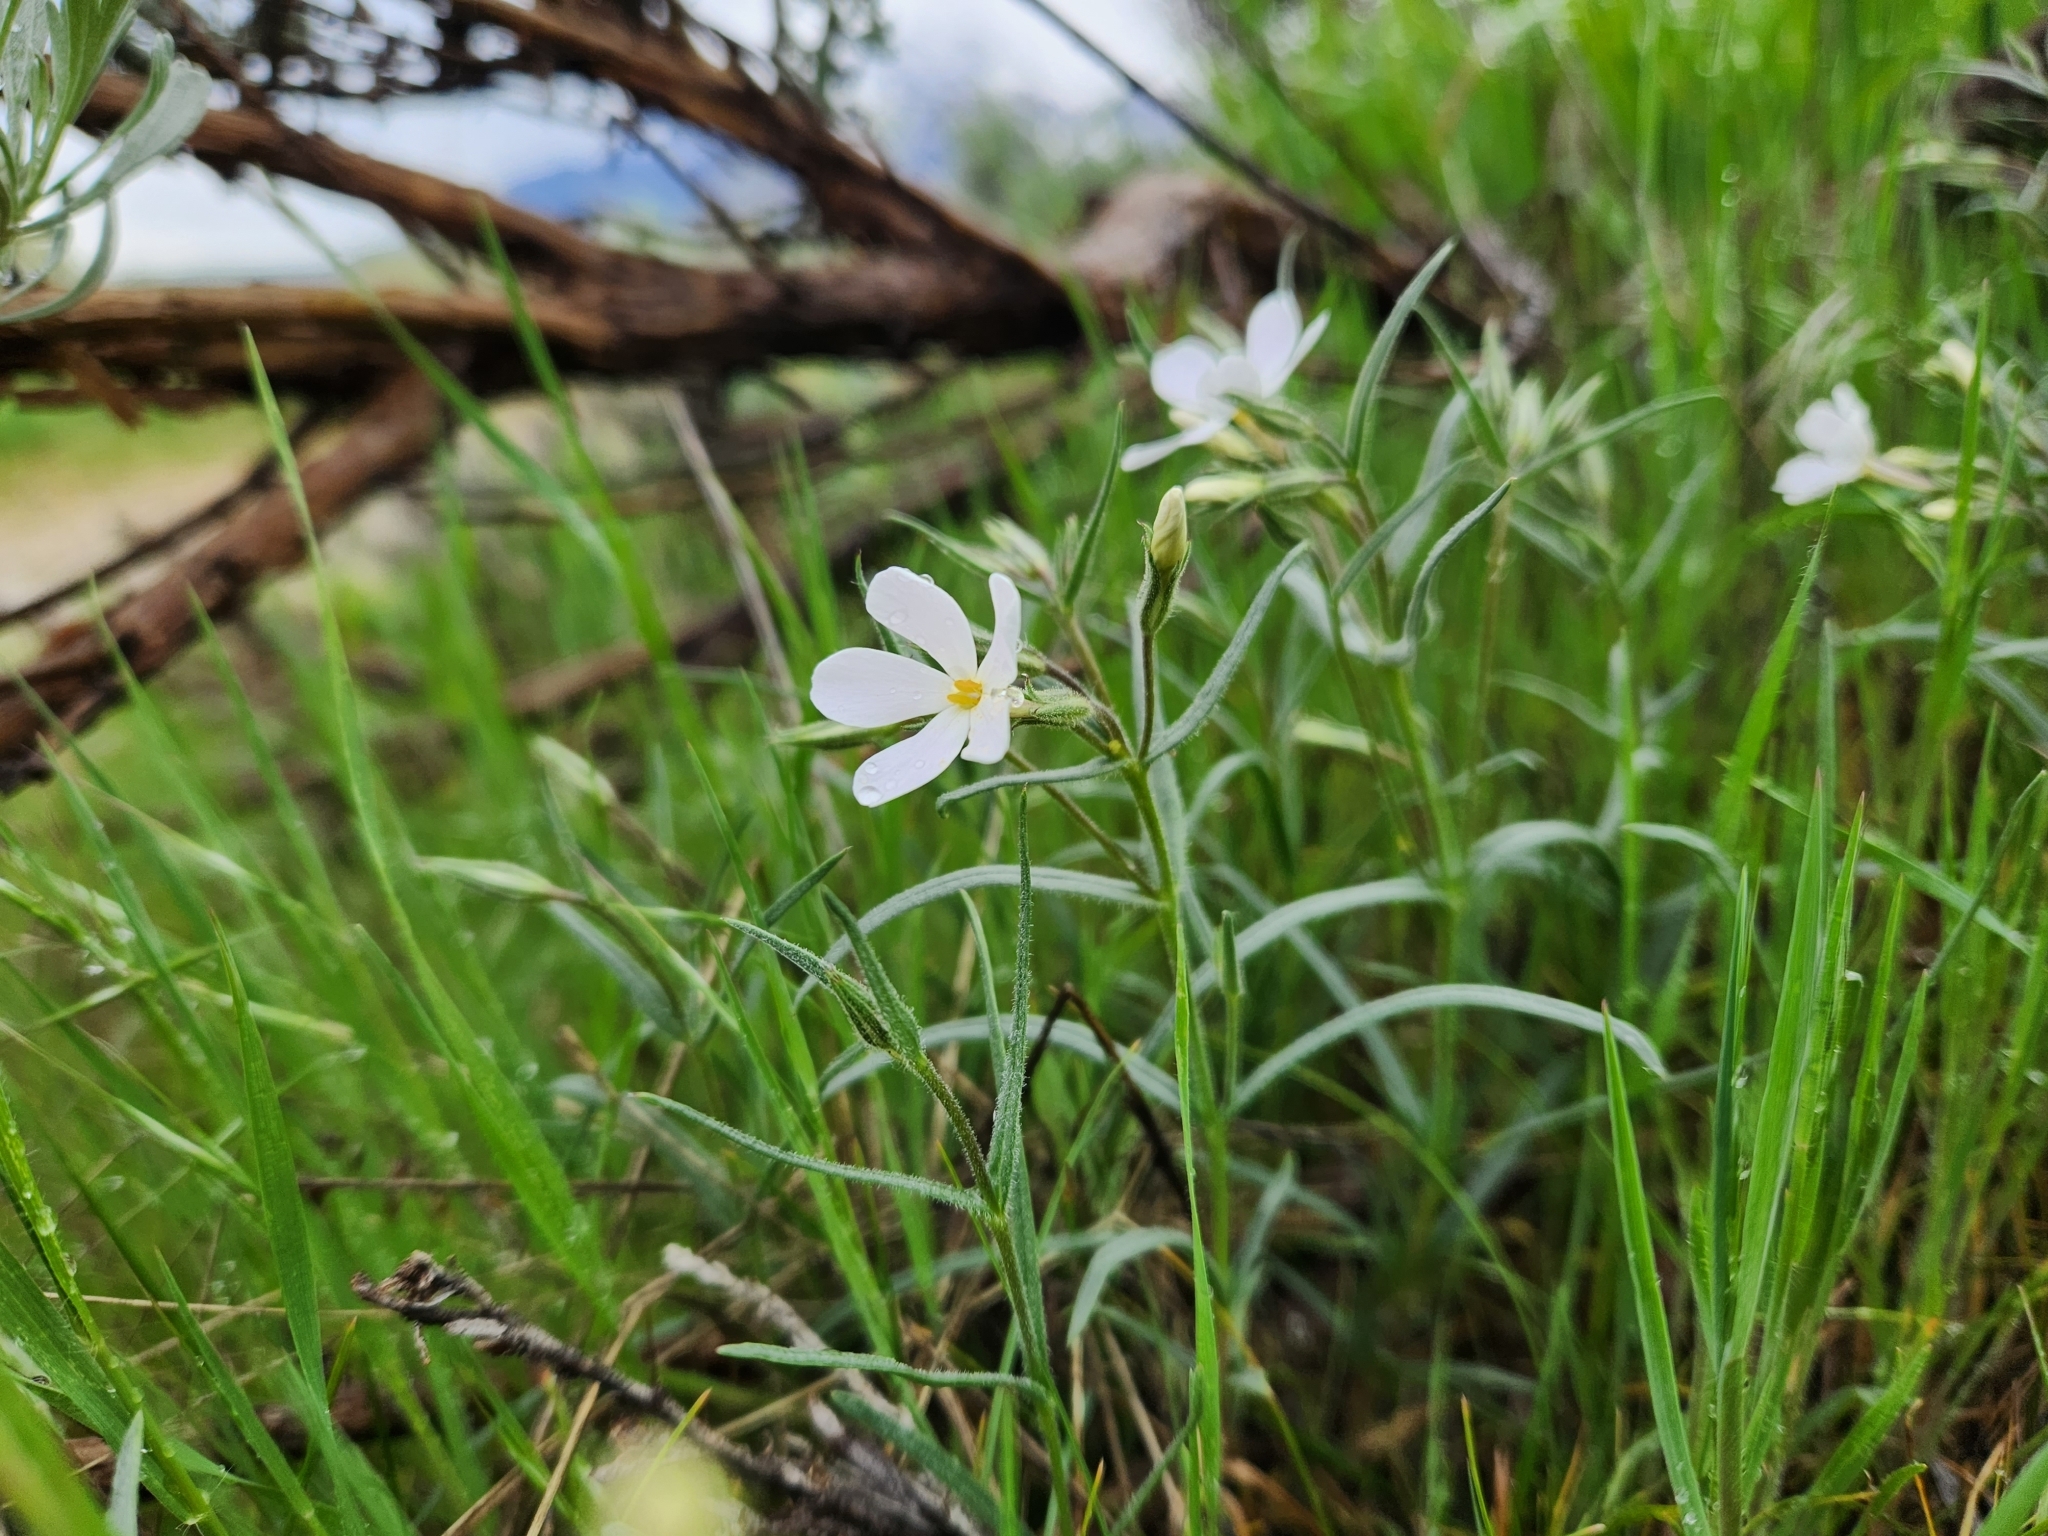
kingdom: Plantae
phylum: Tracheophyta
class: Magnoliopsida
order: Ericales
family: Polemoniaceae
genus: Phlox
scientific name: Phlox longifolia
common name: Longleaf phlox
